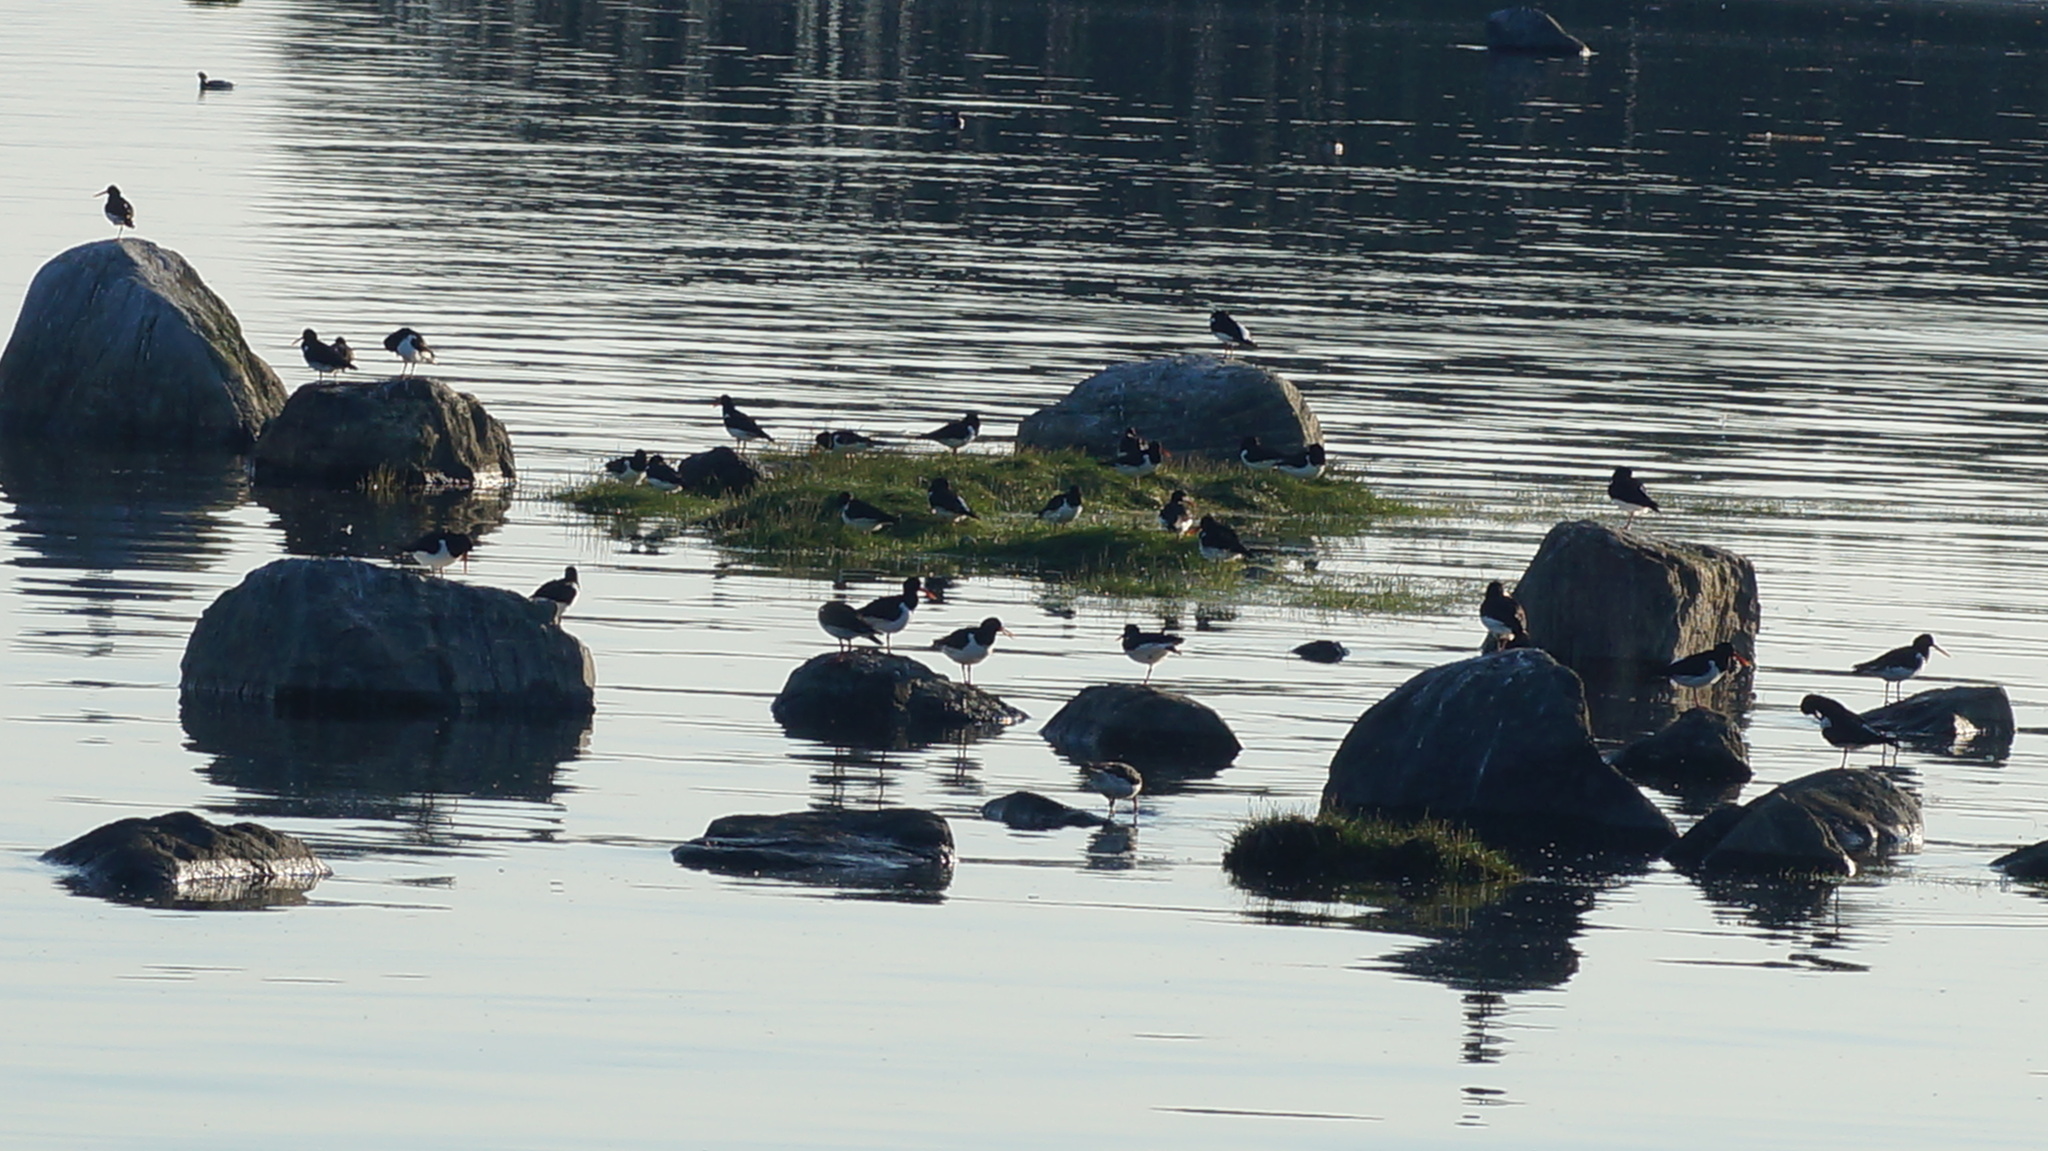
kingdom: Animalia
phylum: Chordata
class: Aves
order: Charadriiformes
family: Haematopodidae
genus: Haematopus
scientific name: Haematopus ostralegus
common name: Eurasian oystercatcher
